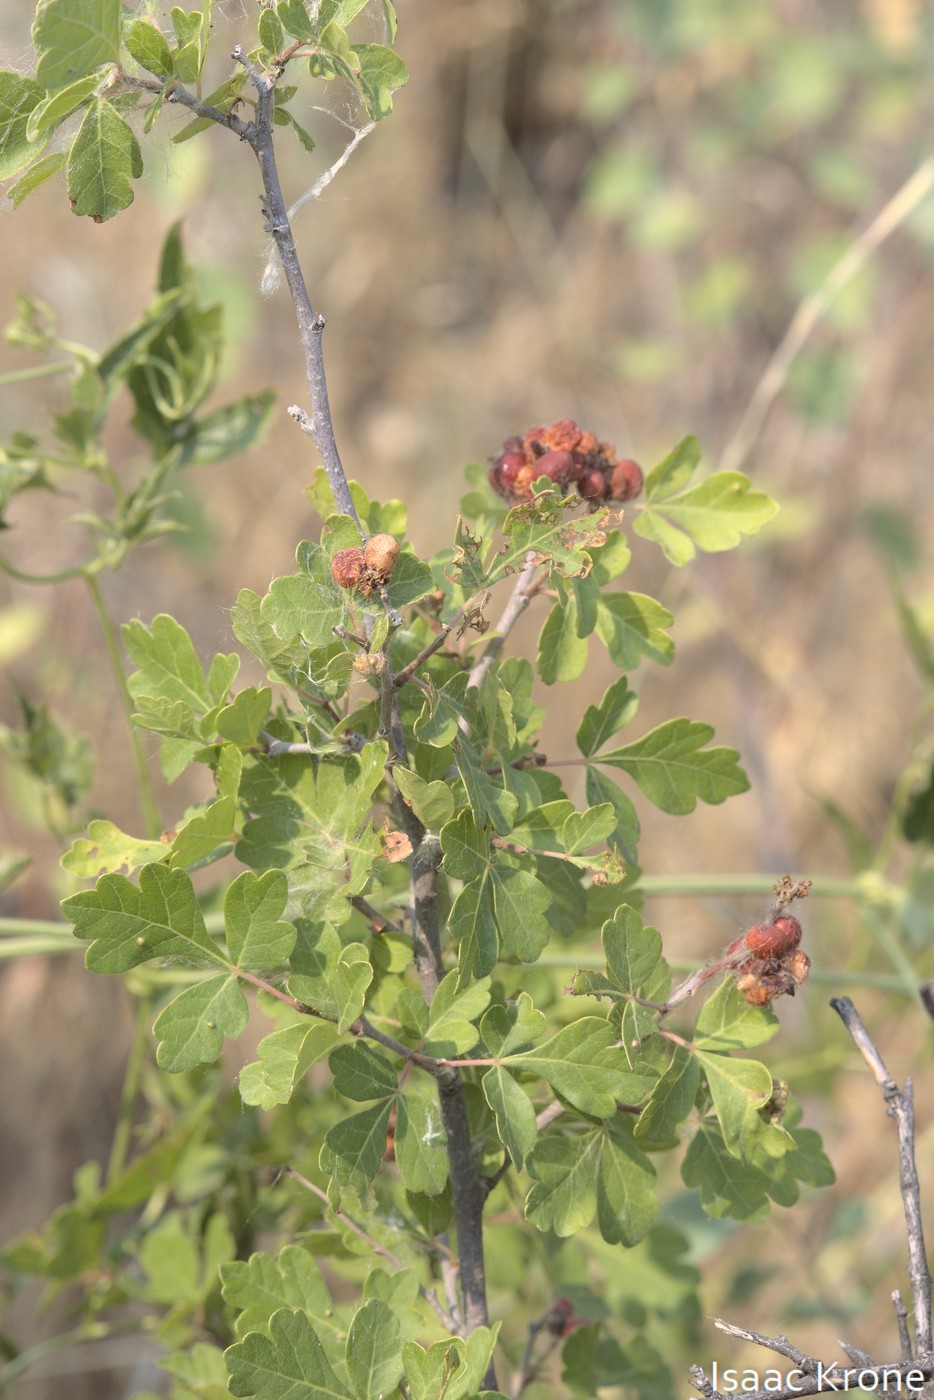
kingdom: Plantae
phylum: Tracheophyta
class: Magnoliopsida
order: Sapindales
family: Anacardiaceae
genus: Rhus
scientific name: Rhus trilobata
